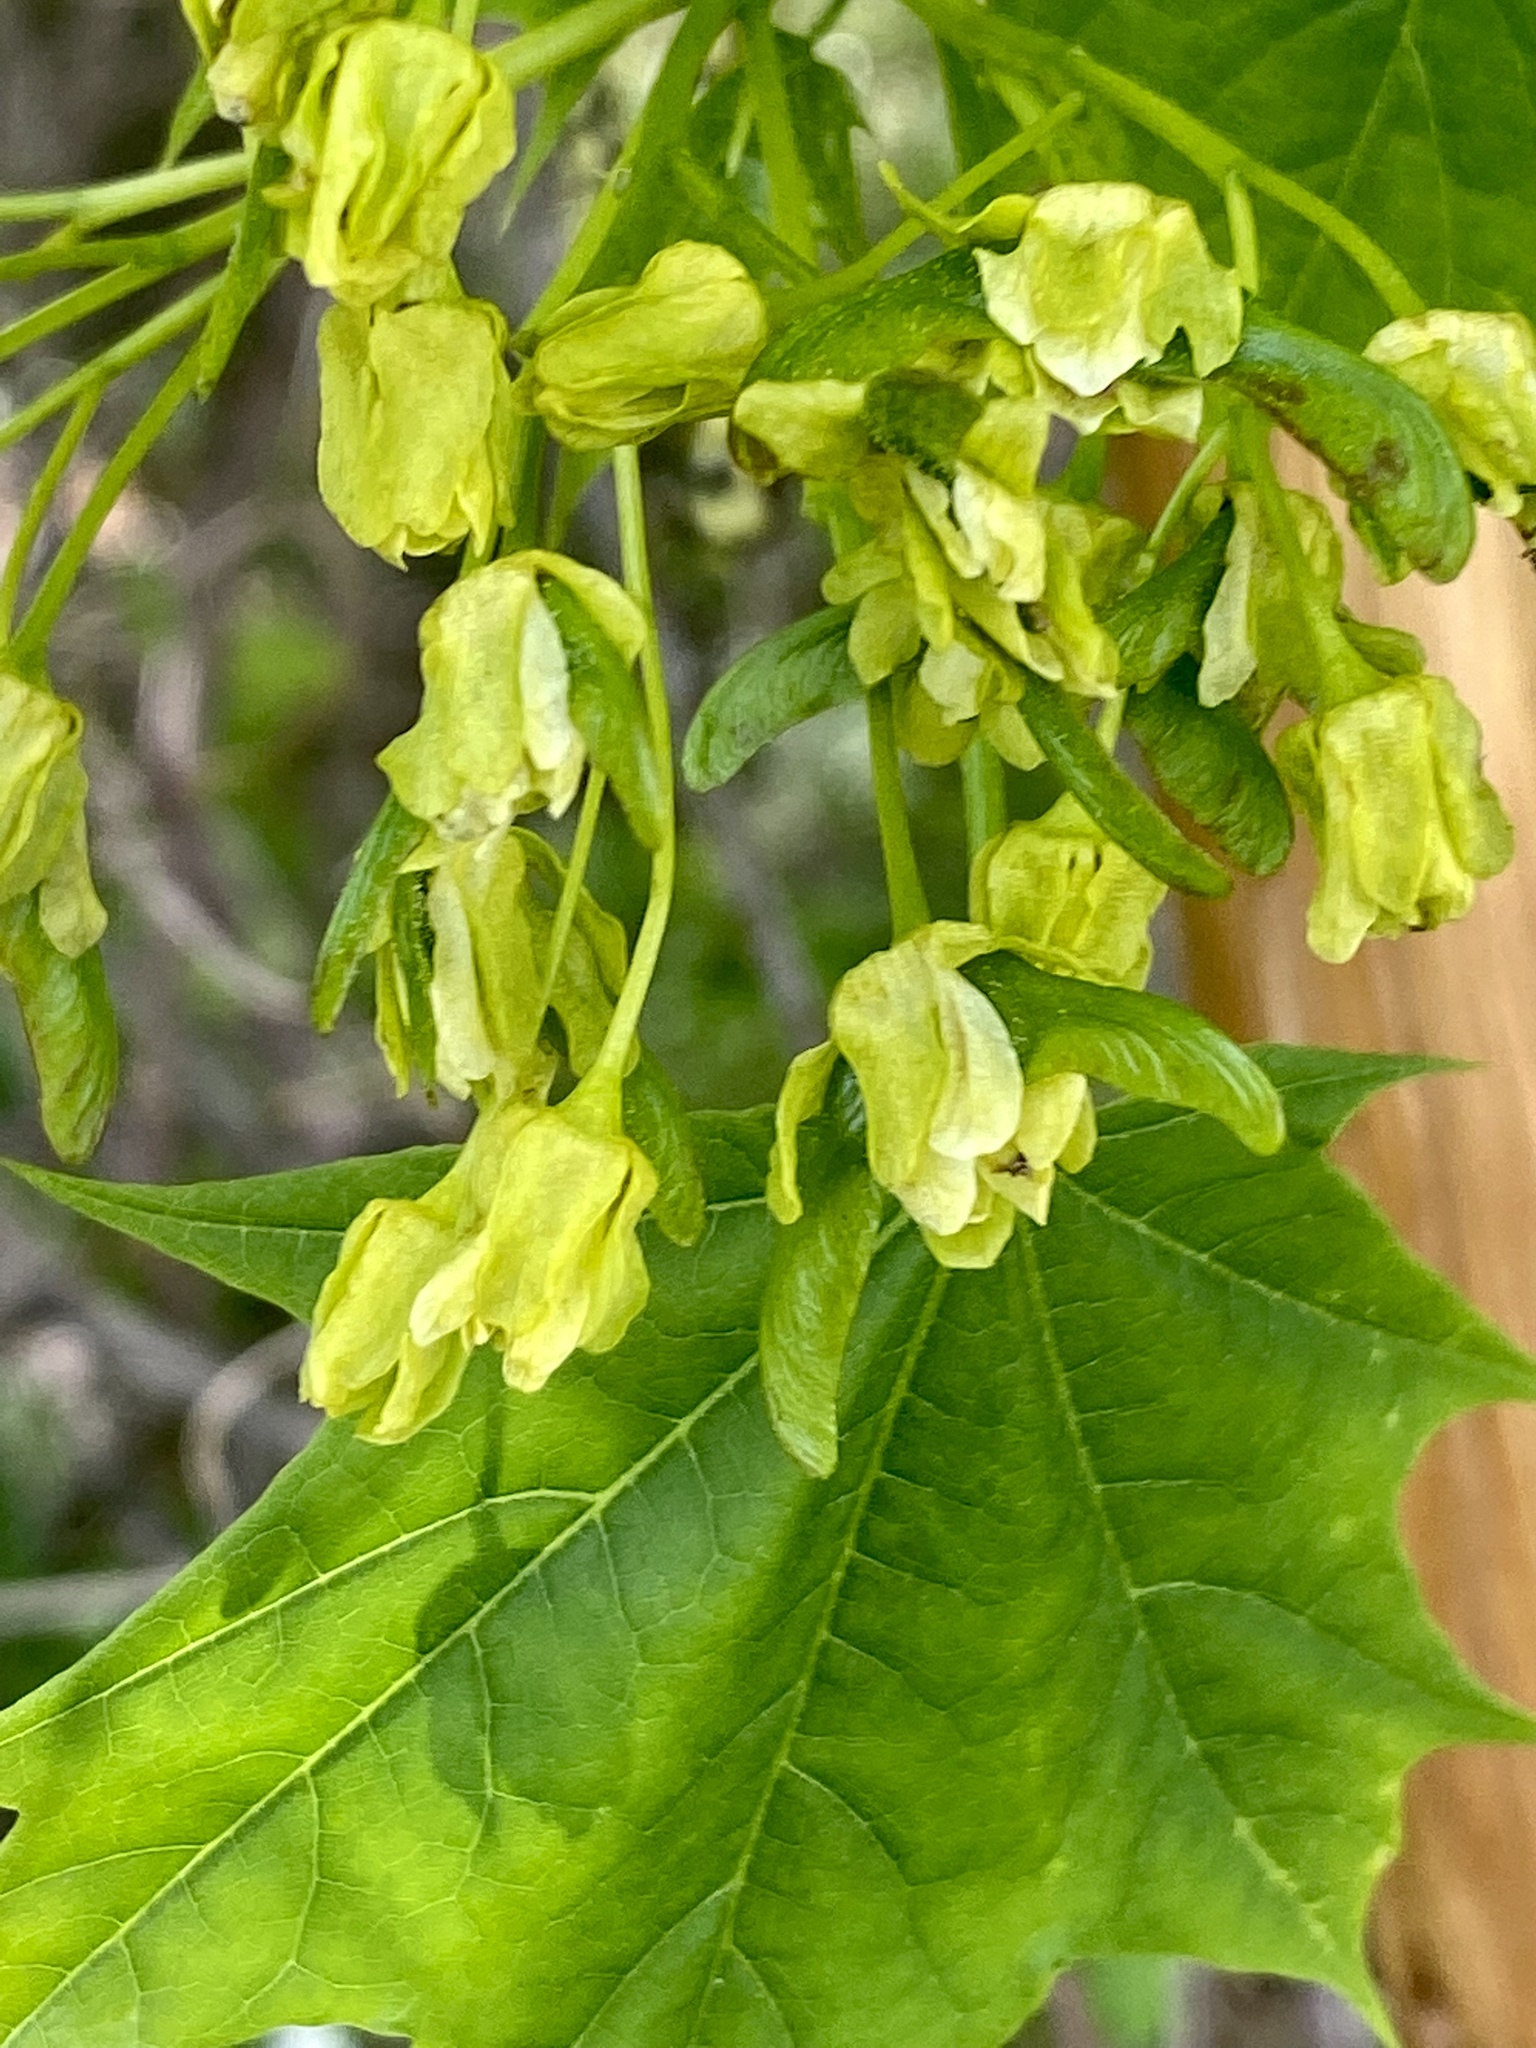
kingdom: Plantae
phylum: Tracheophyta
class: Magnoliopsida
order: Sapindales
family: Sapindaceae
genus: Acer
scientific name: Acer platanoides
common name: Norway maple
